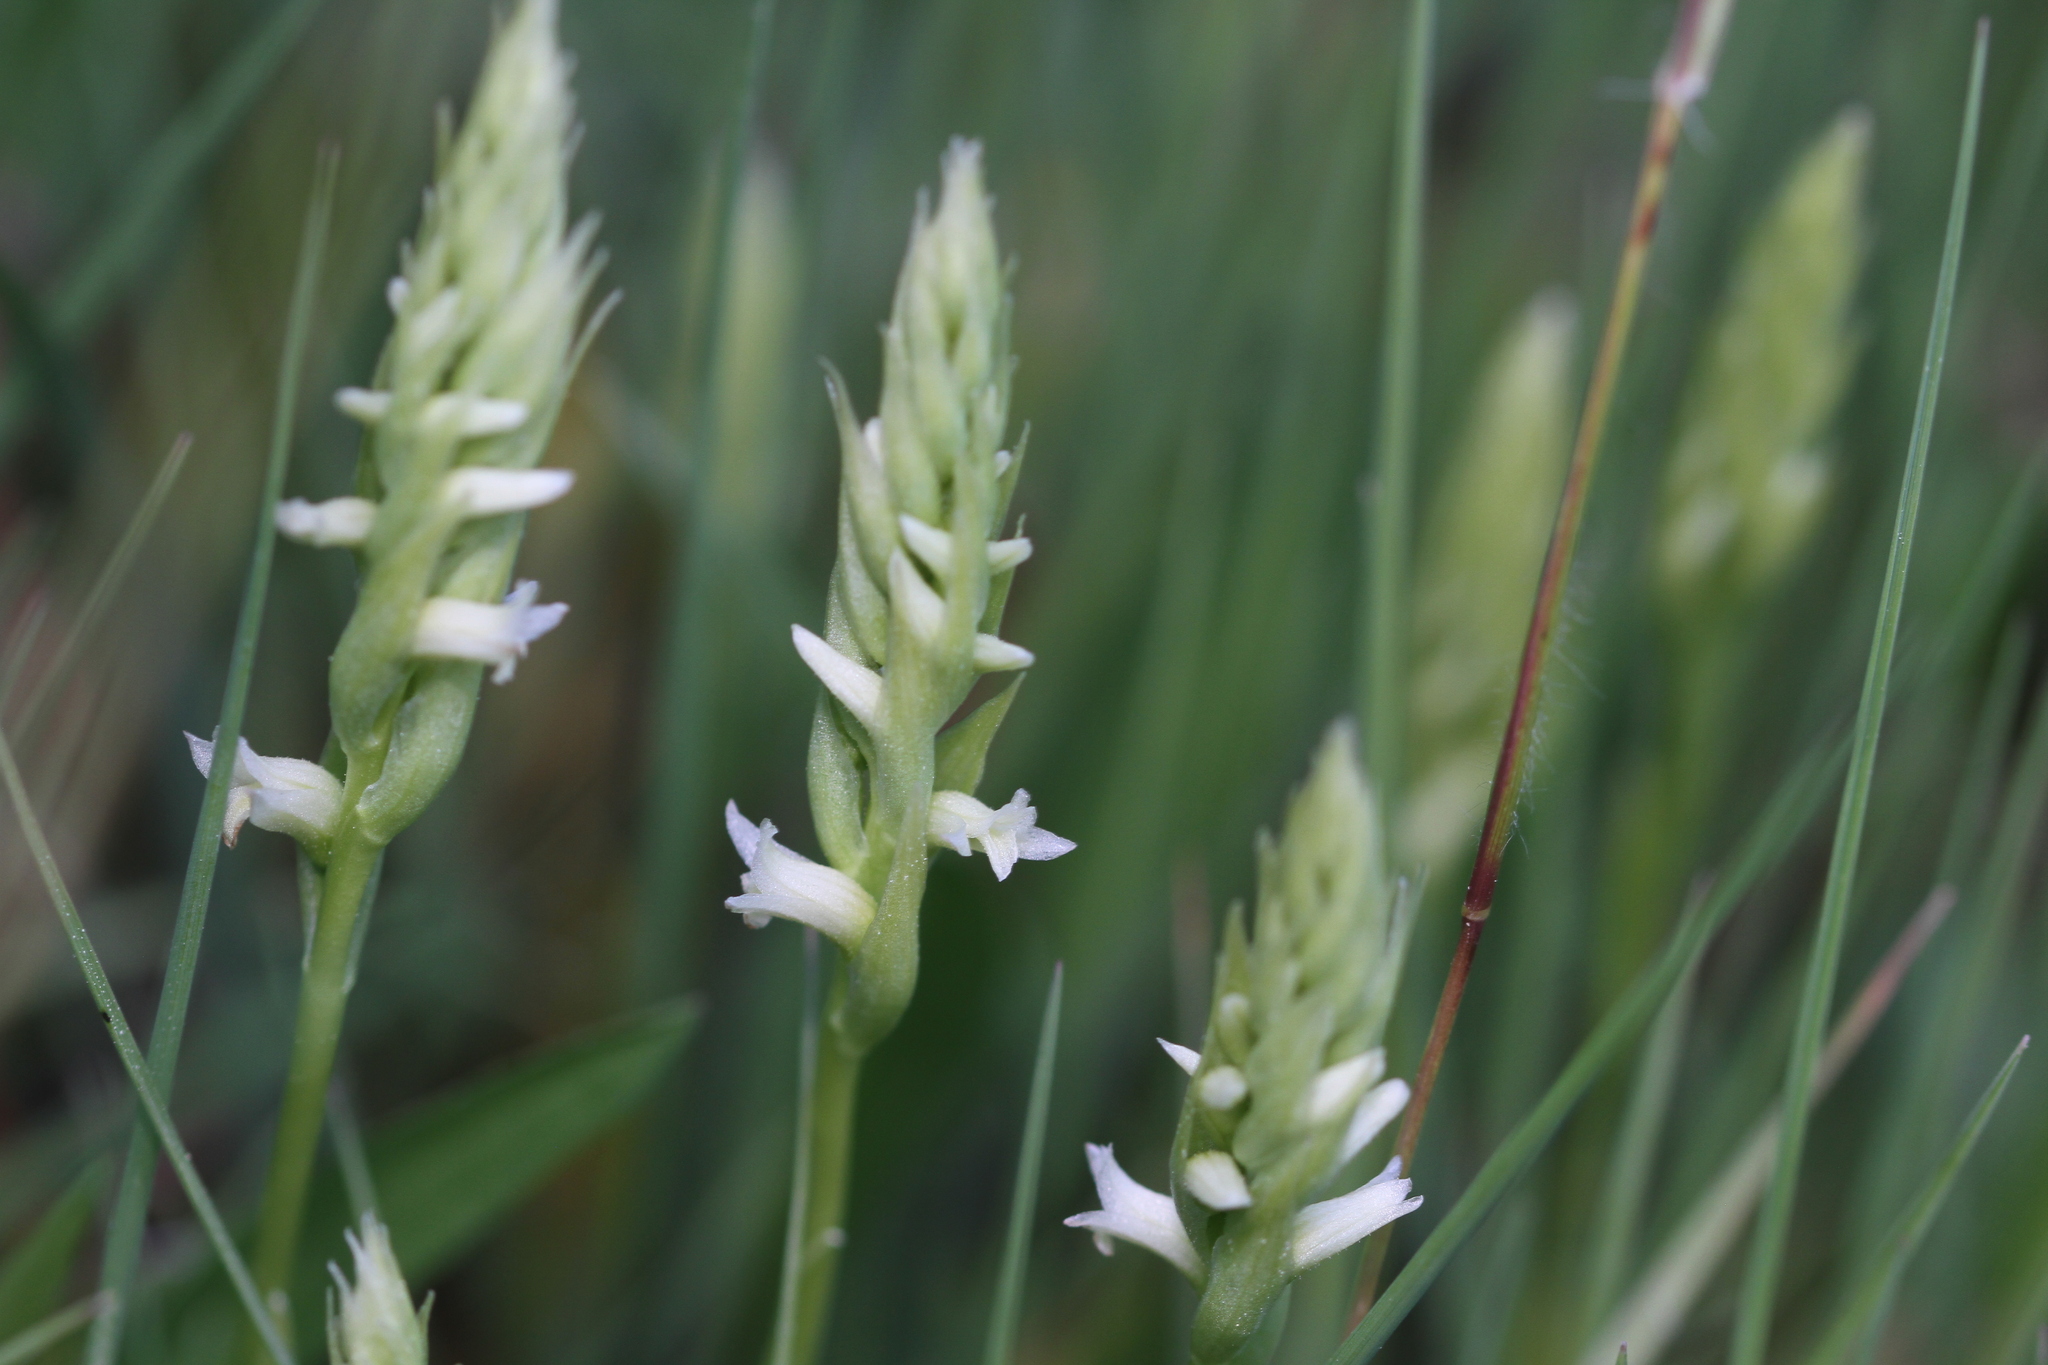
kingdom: Plantae
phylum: Tracheophyta
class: Liliopsida
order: Asparagales
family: Orchidaceae
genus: Spiranthes
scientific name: Spiranthes stellata
